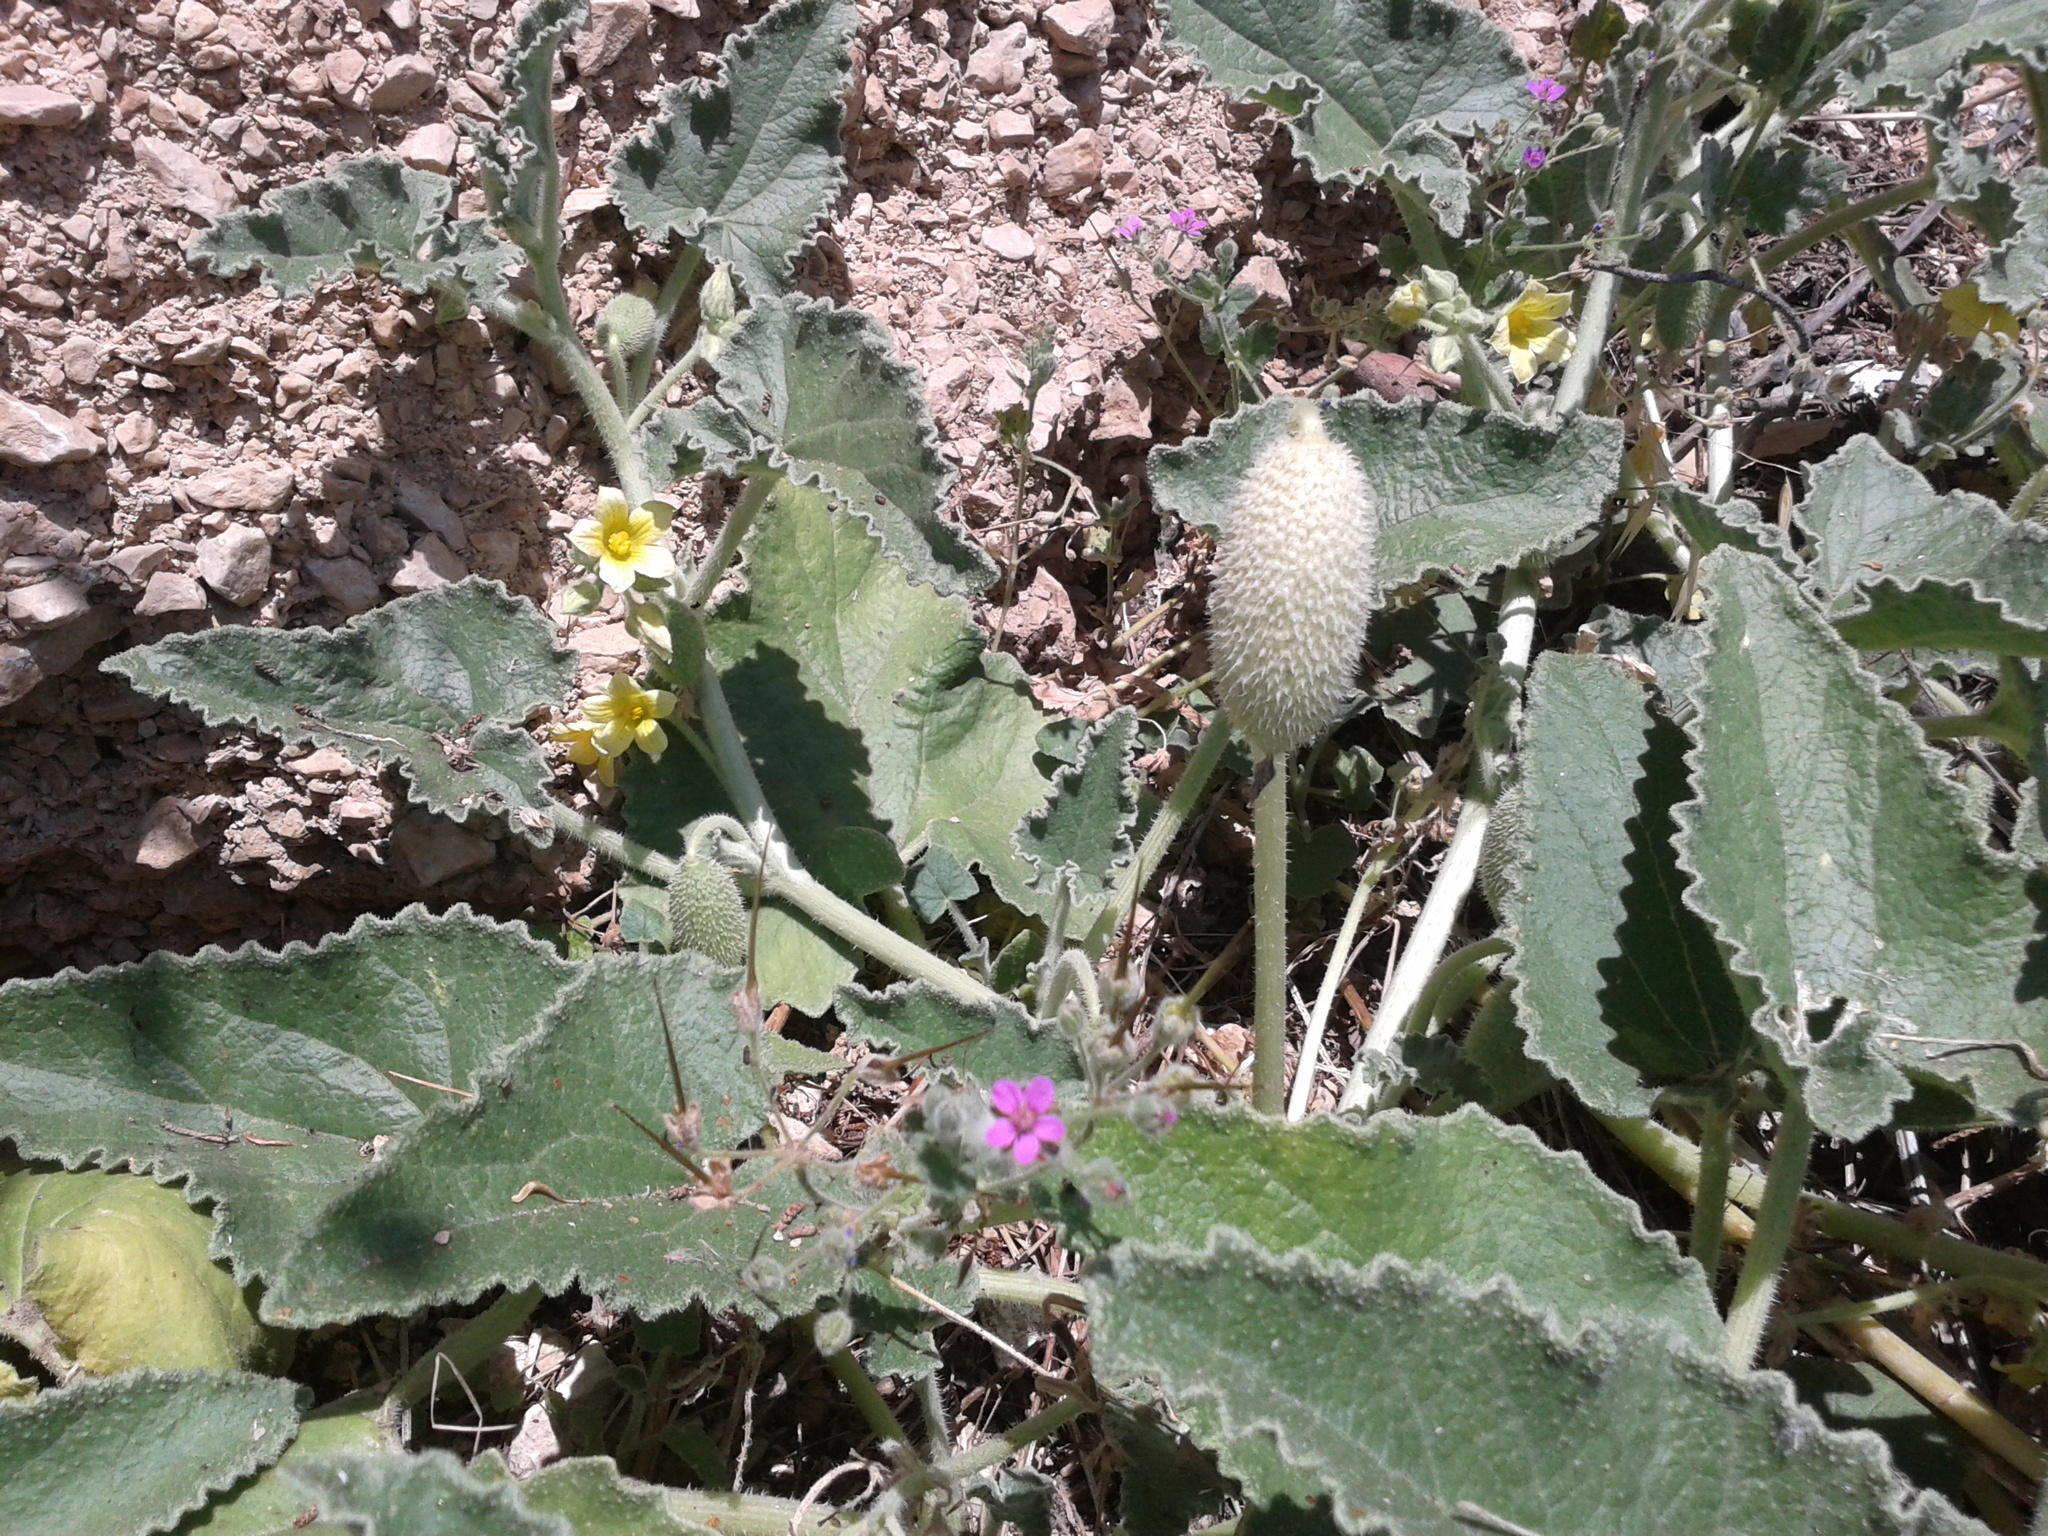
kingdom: Plantae
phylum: Tracheophyta
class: Magnoliopsida
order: Cucurbitales
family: Cucurbitaceae
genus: Ecballium
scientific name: Ecballium elaterium
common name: Squirting cucumber
